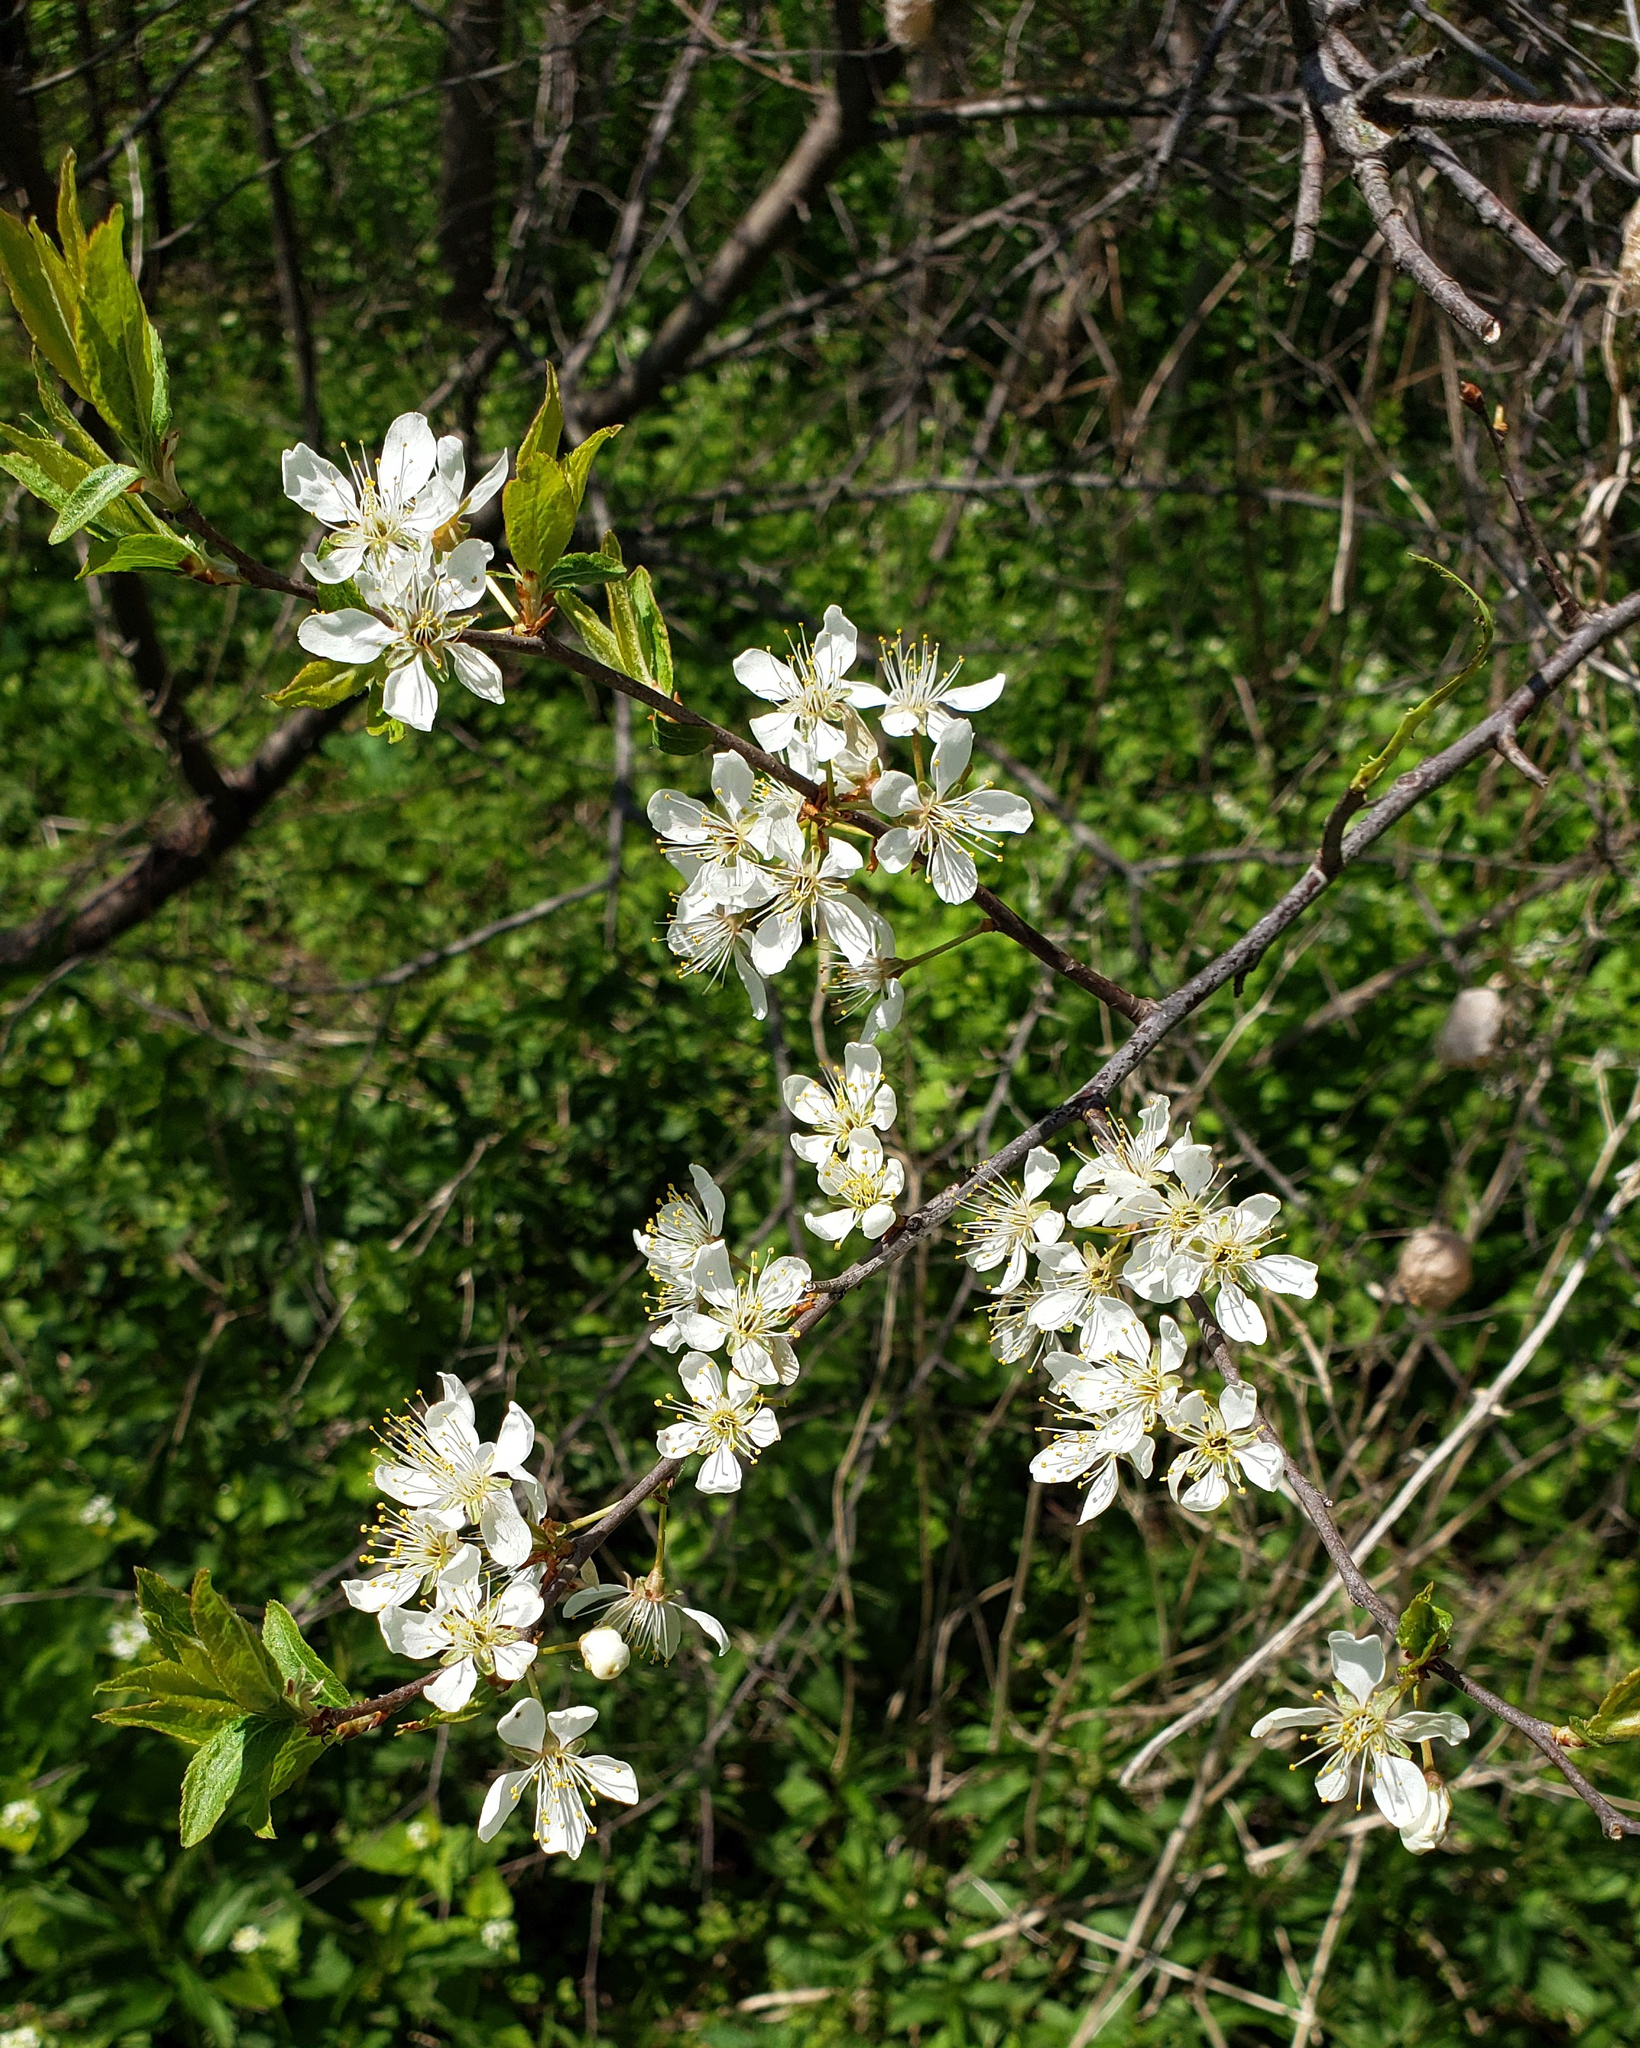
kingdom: Plantae
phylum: Tracheophyta
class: Magnoliopsida
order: Rosales
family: Rosaceae
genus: Prunus
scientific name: Prunus americana
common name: American plum
